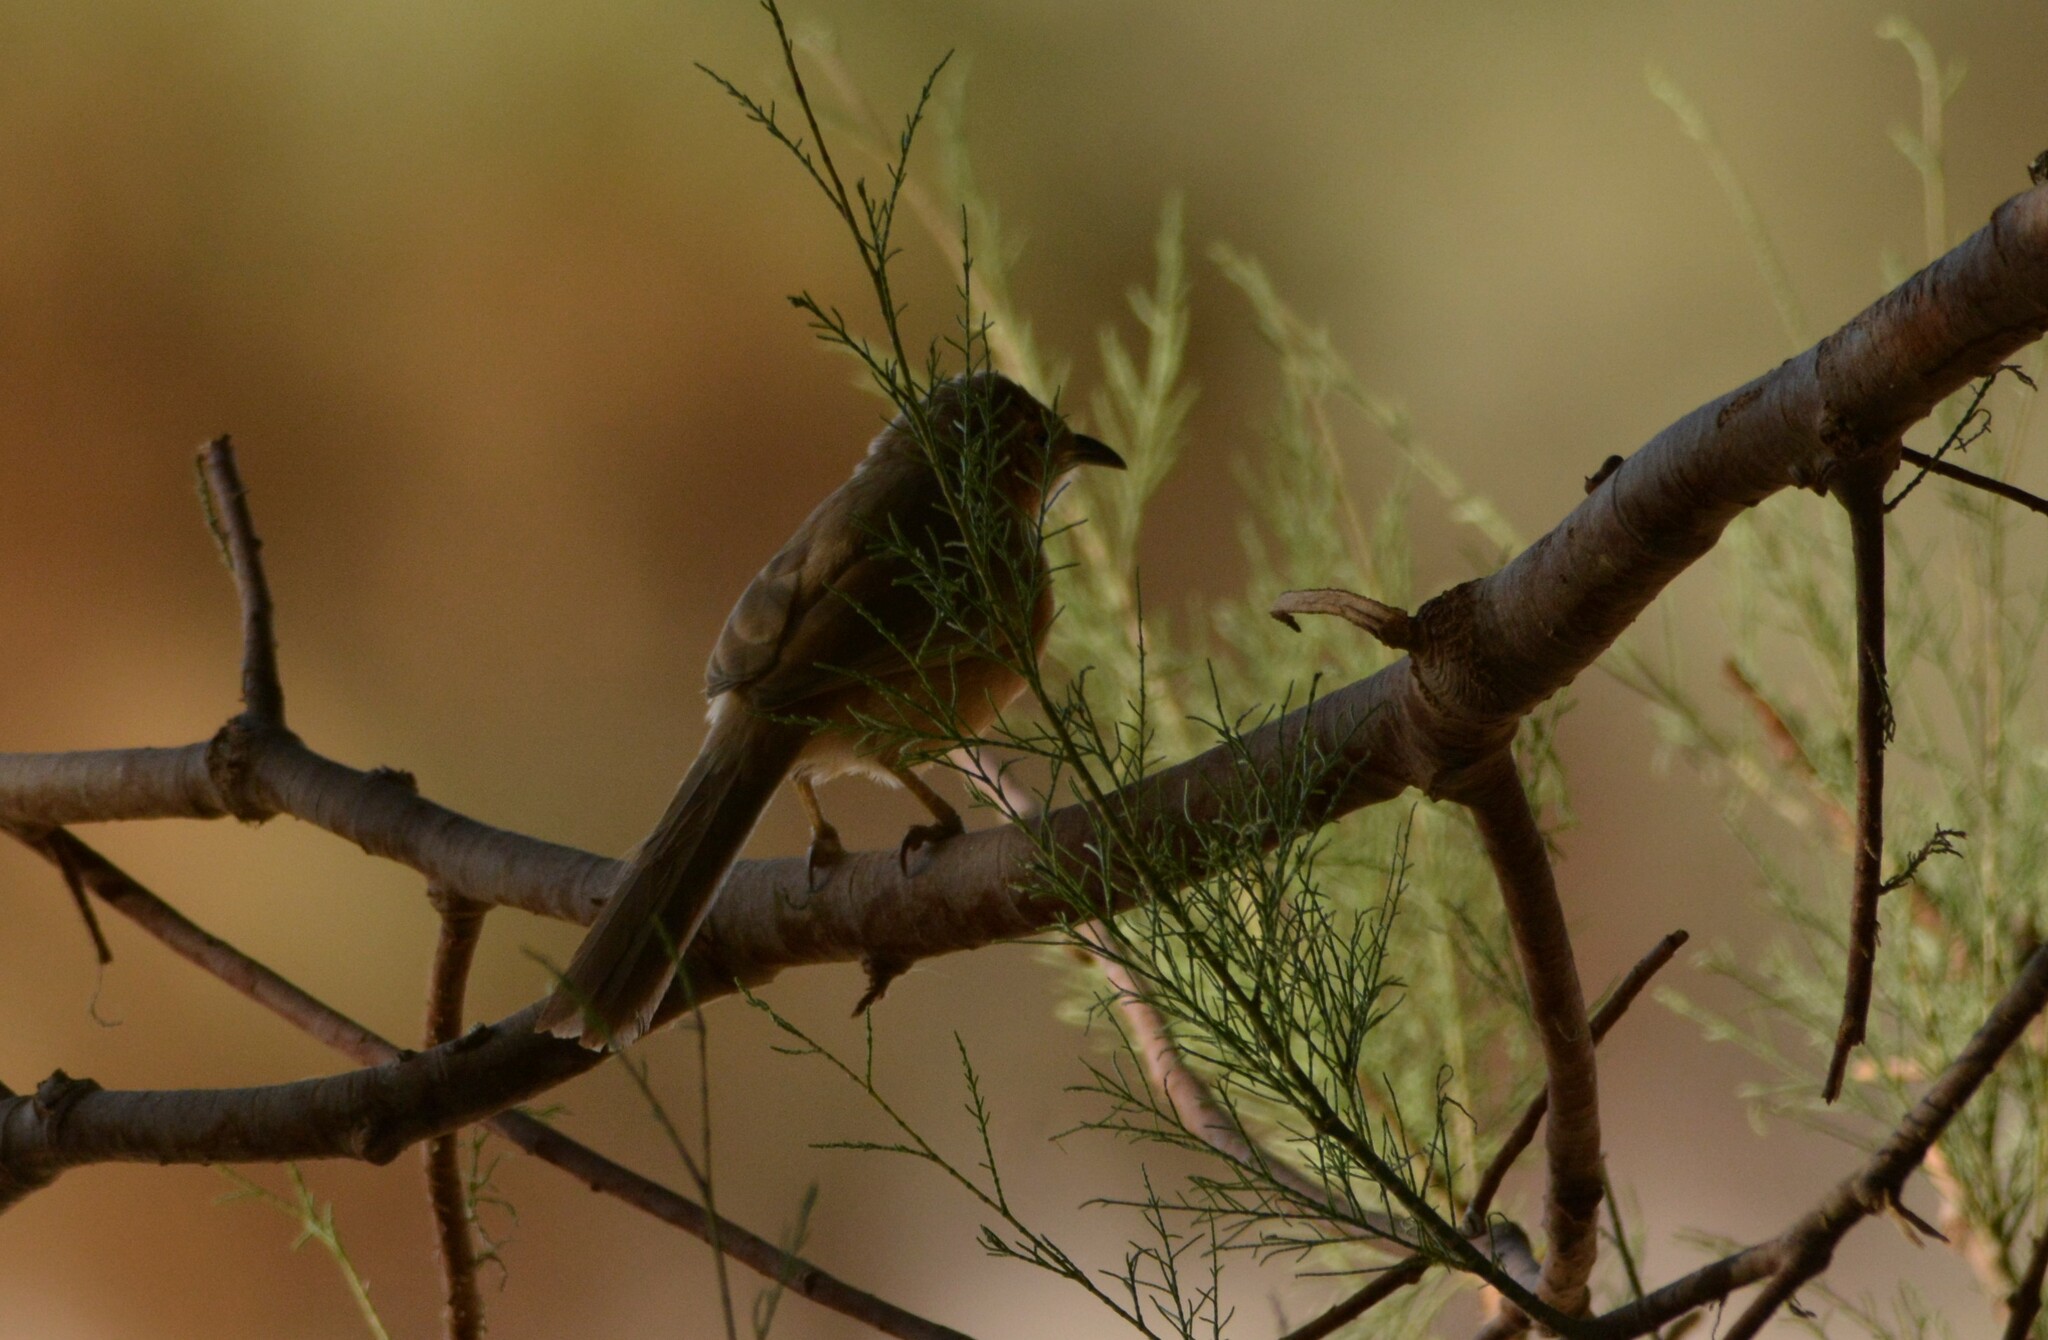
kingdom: Animalia
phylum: Chordata
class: Aves
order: Passeriformes
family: Leiothrichidae
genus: Turdoides
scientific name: Turdoides fulva
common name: Fulvous babbler
